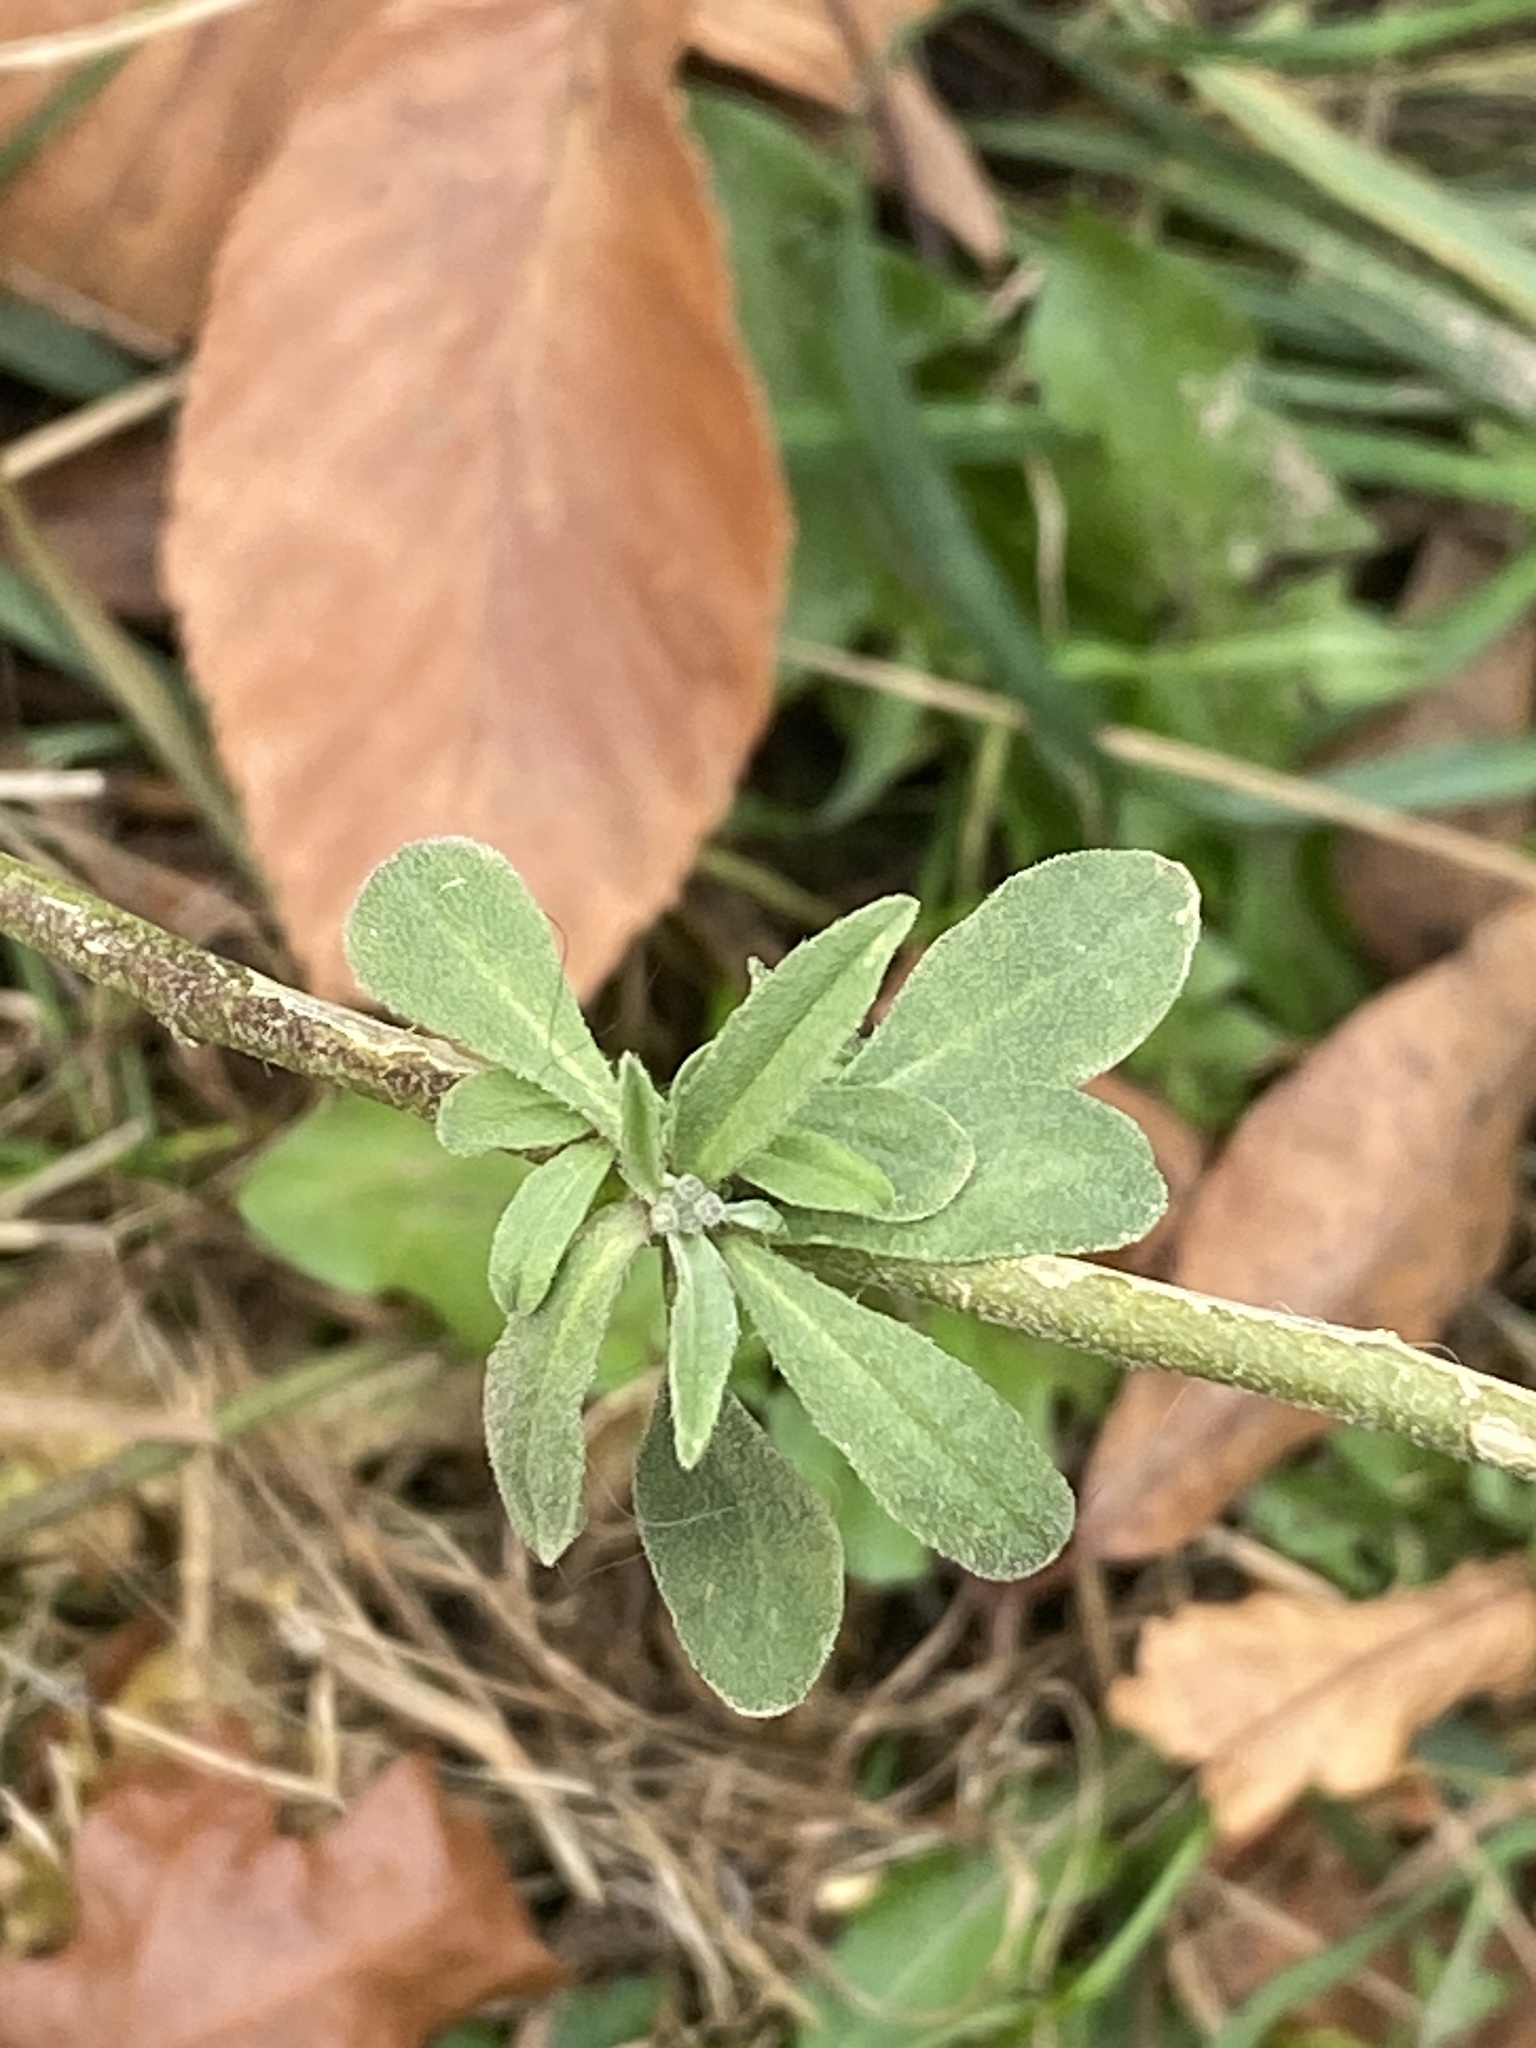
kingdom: Plantae
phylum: Tracheophyta
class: Magnoliopsida
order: Brassicales
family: Brassicaceae
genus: Berteroa
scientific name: Berteroa incana
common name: Hoary alison
